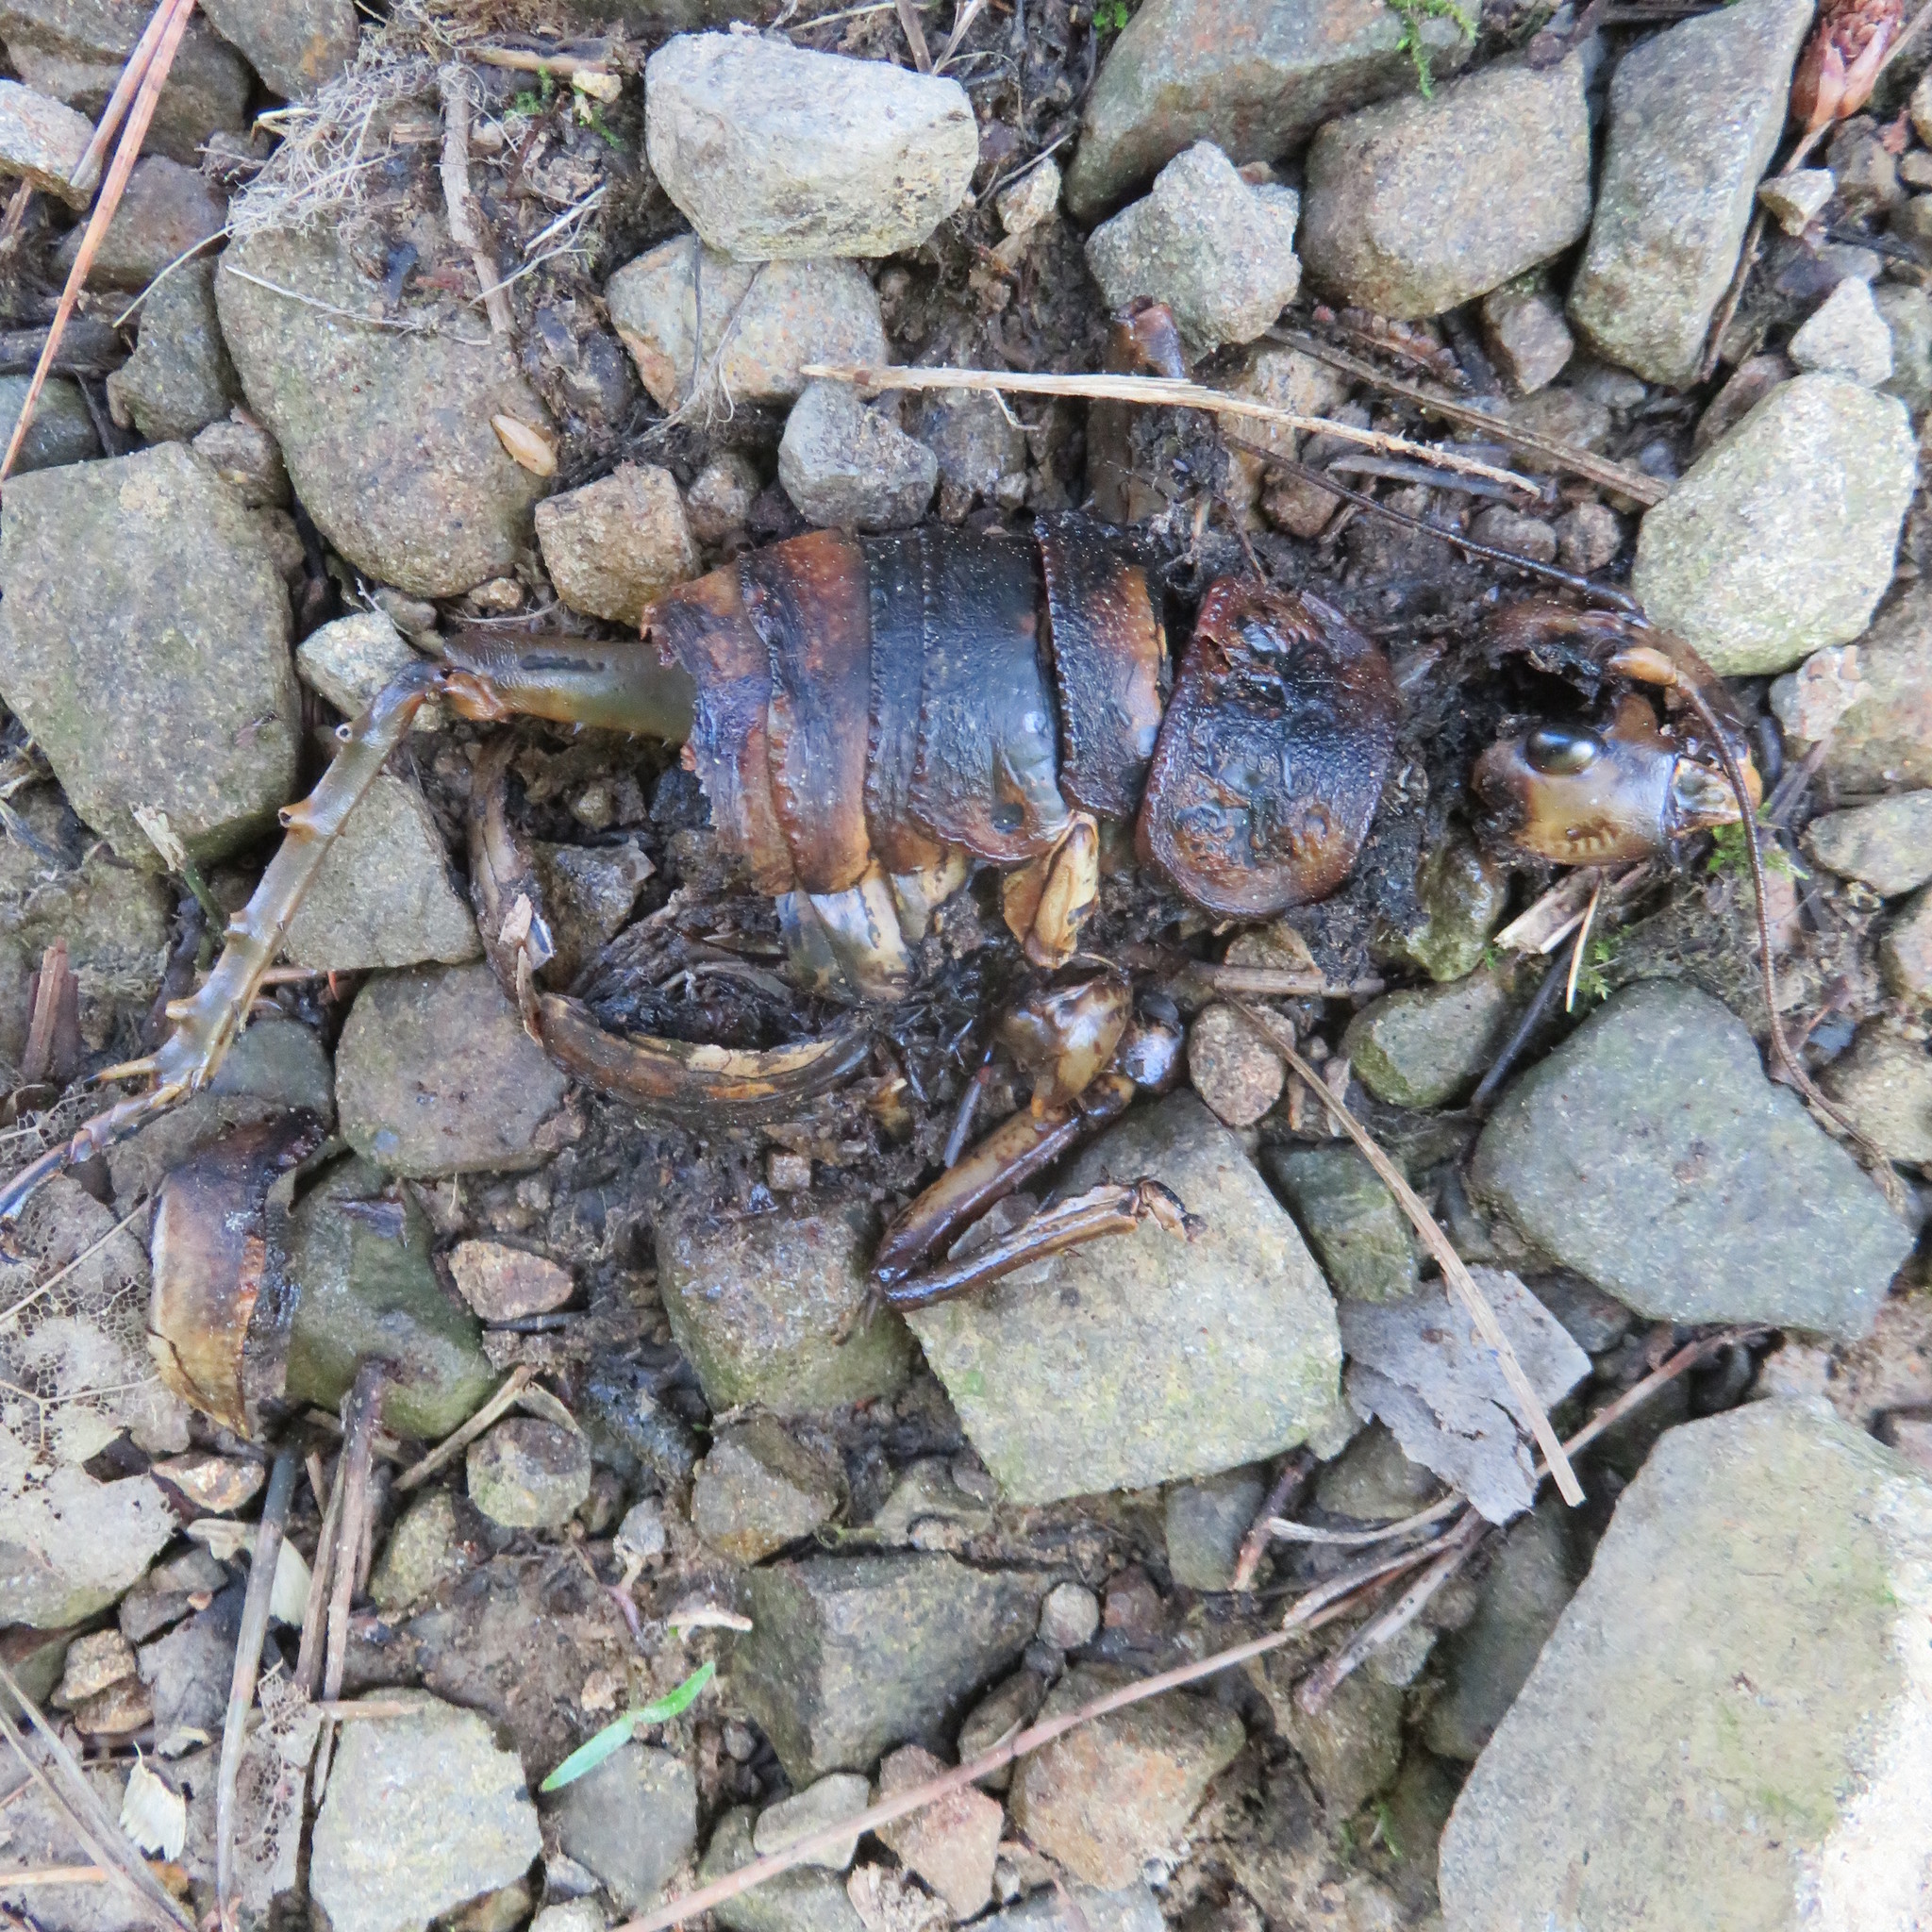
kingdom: Animalia
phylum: Arthropoda
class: Insecta
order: Orthoptera
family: Anostostomatidae
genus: Deinacrida
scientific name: Deinacrida rugosa
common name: Stephens island weta
